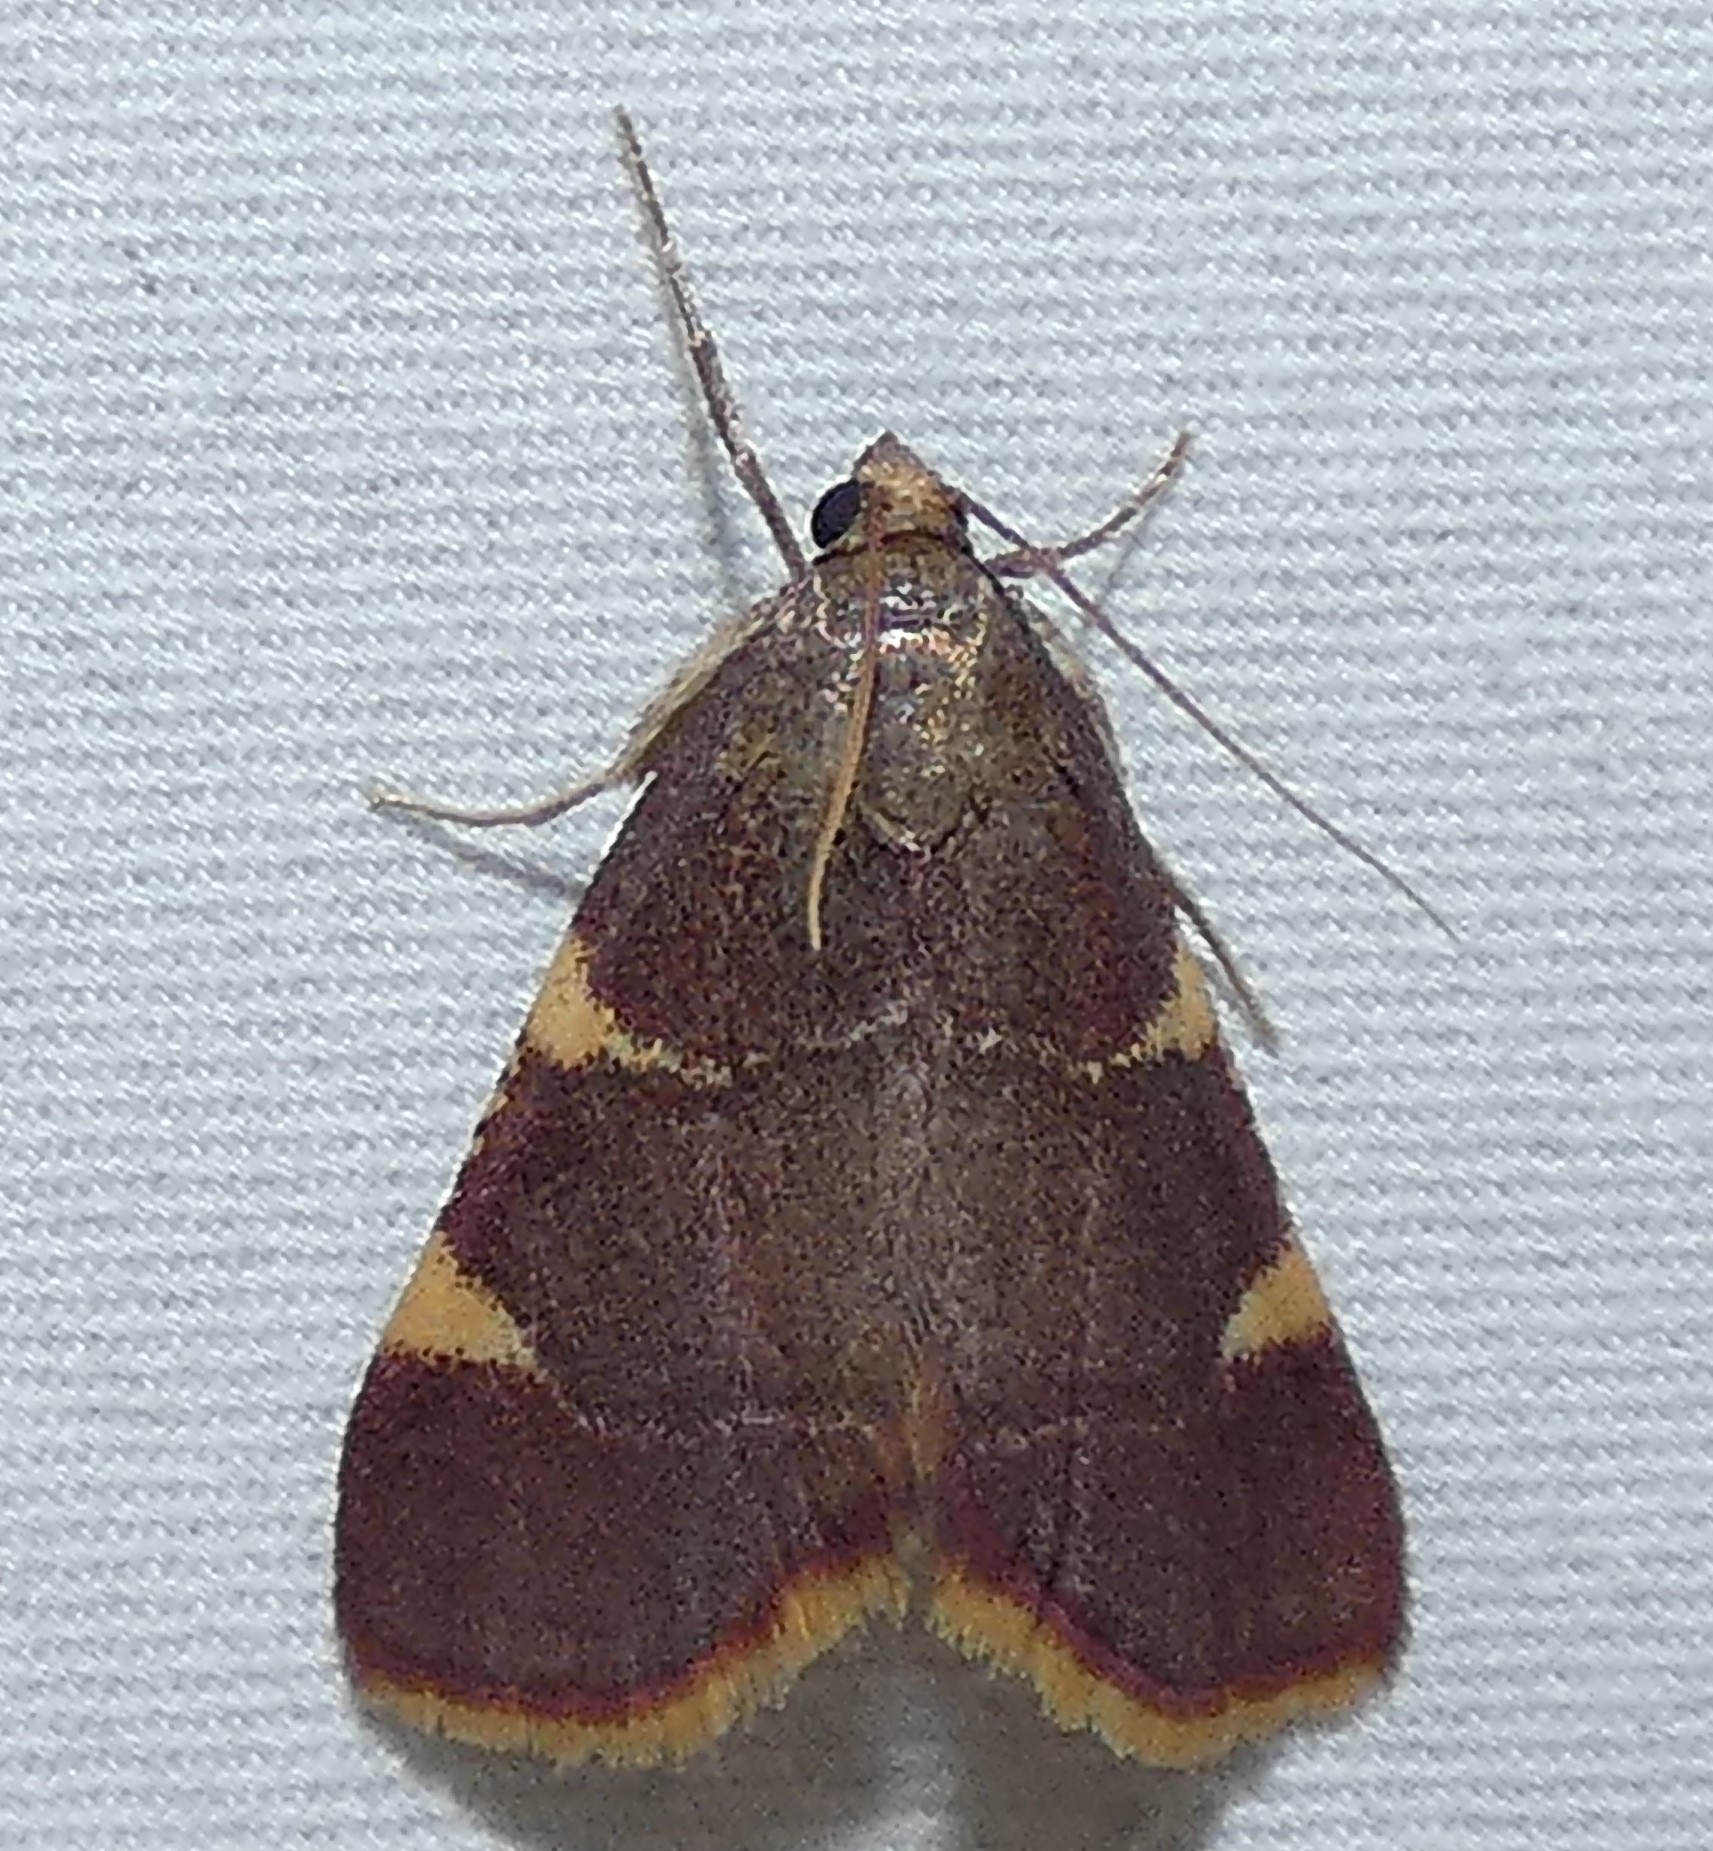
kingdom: Animalia
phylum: Arthropoda
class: Insecta
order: Lepidoptera
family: Pyralidae
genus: Hypsopygia
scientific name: Hypsopygia olinalis
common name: Yellow-fringed dolichomia moth
